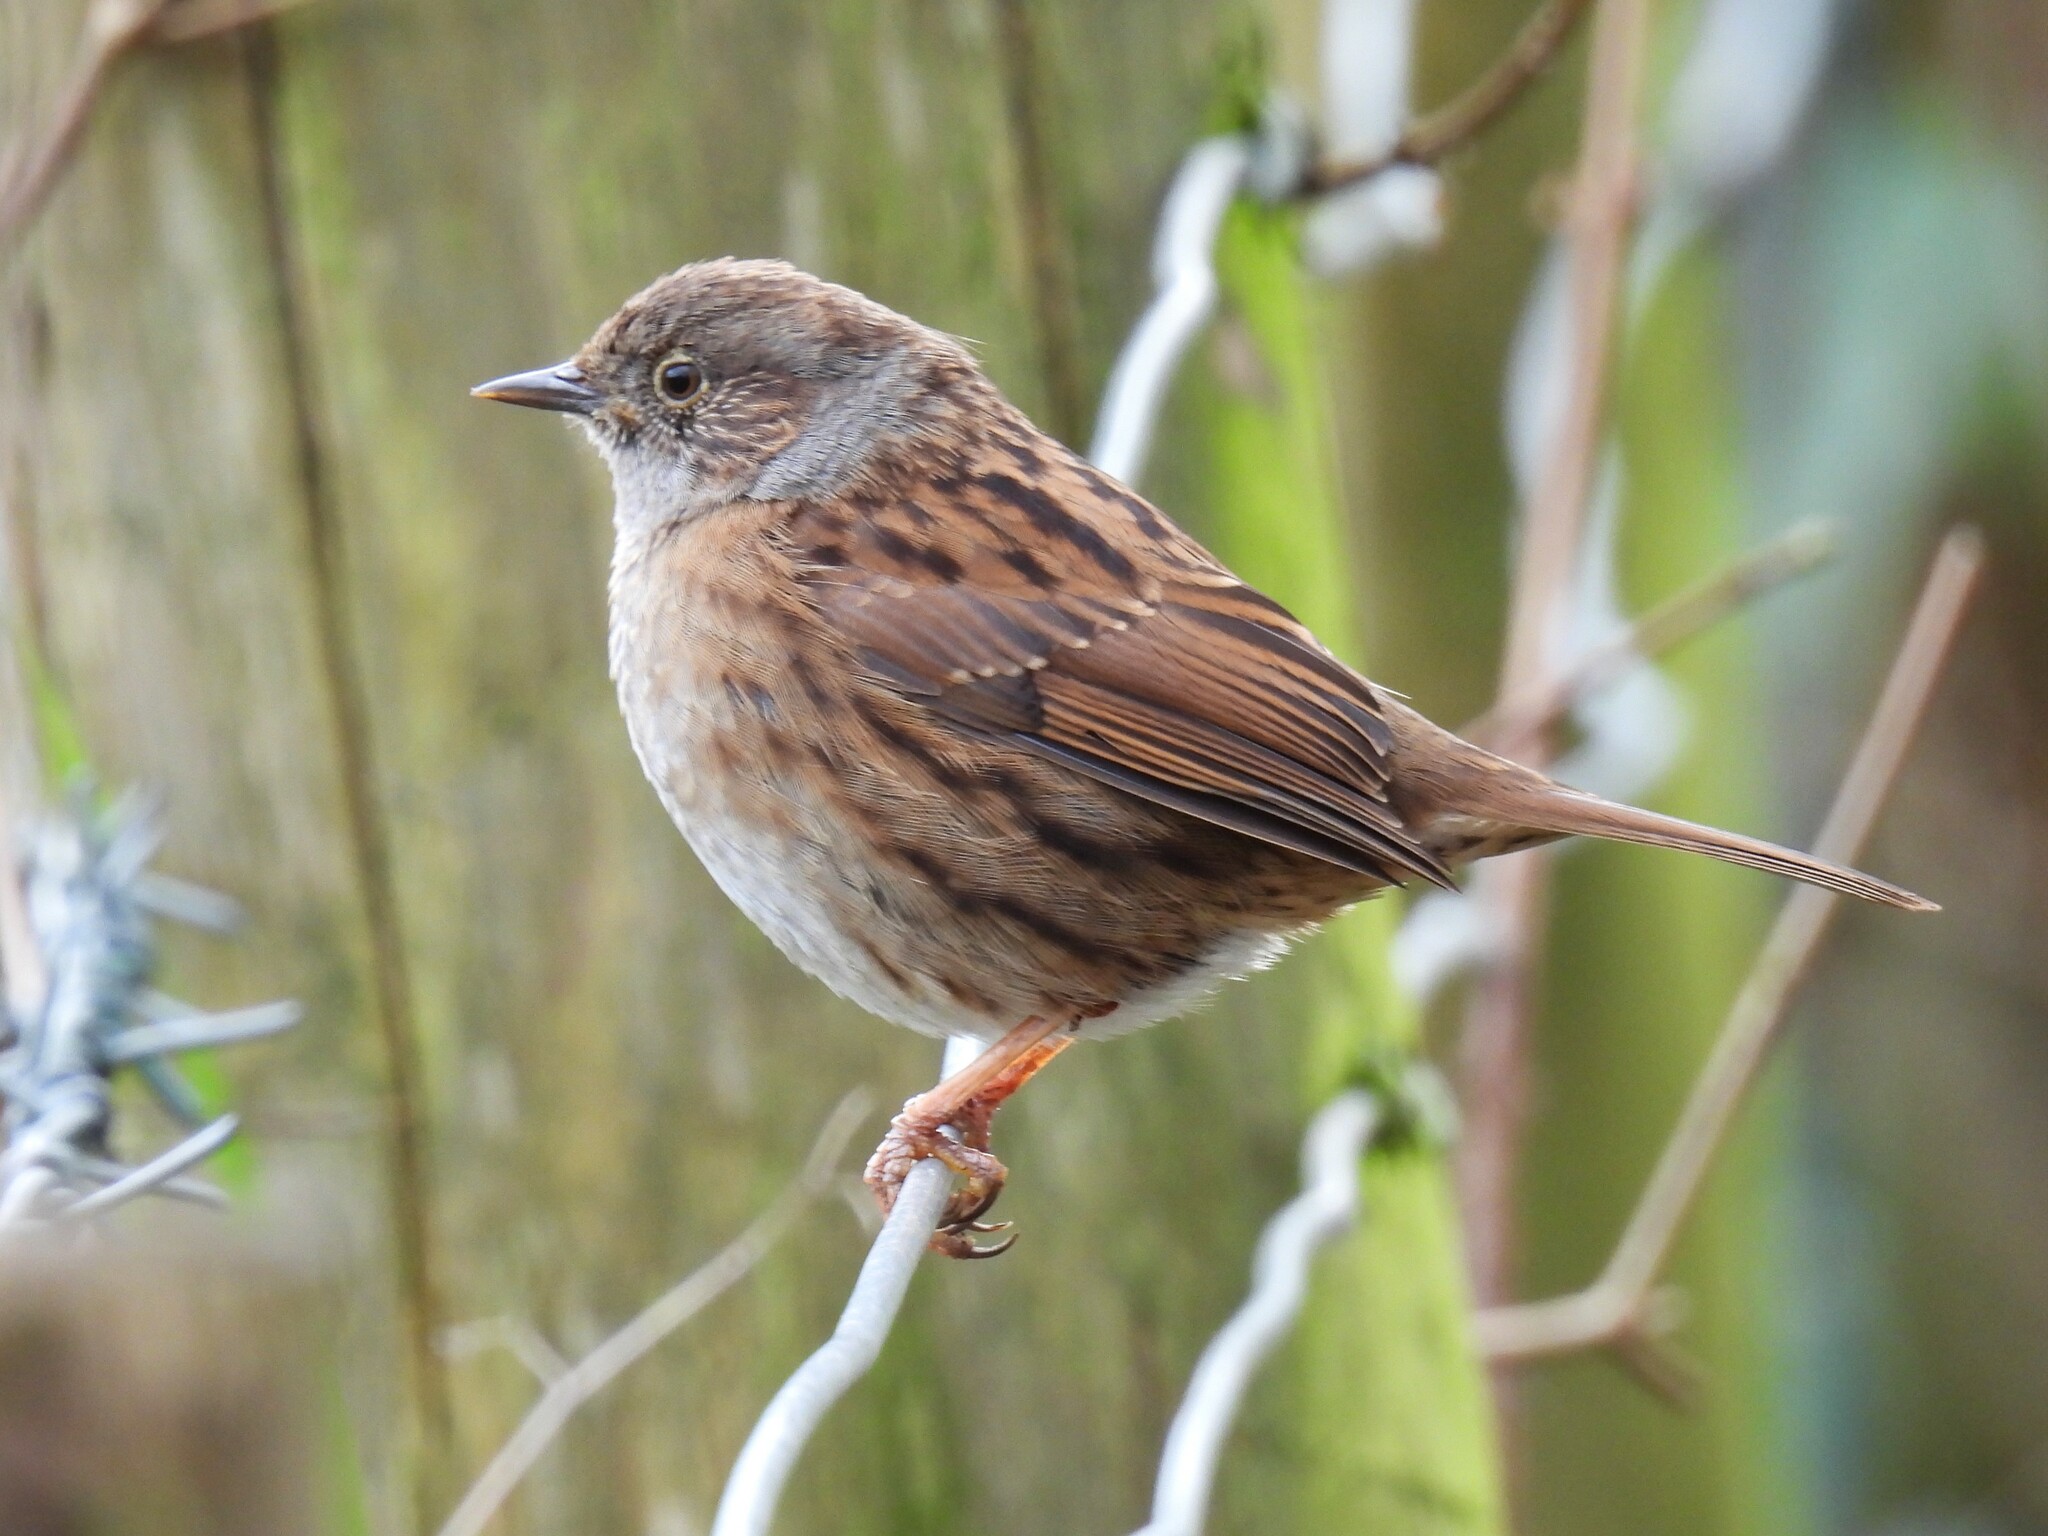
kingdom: Animalia
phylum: Chordata
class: Aves
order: Passeriformes
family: Prunellidae
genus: Prunella
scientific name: Prunella modularis
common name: Dunnock
